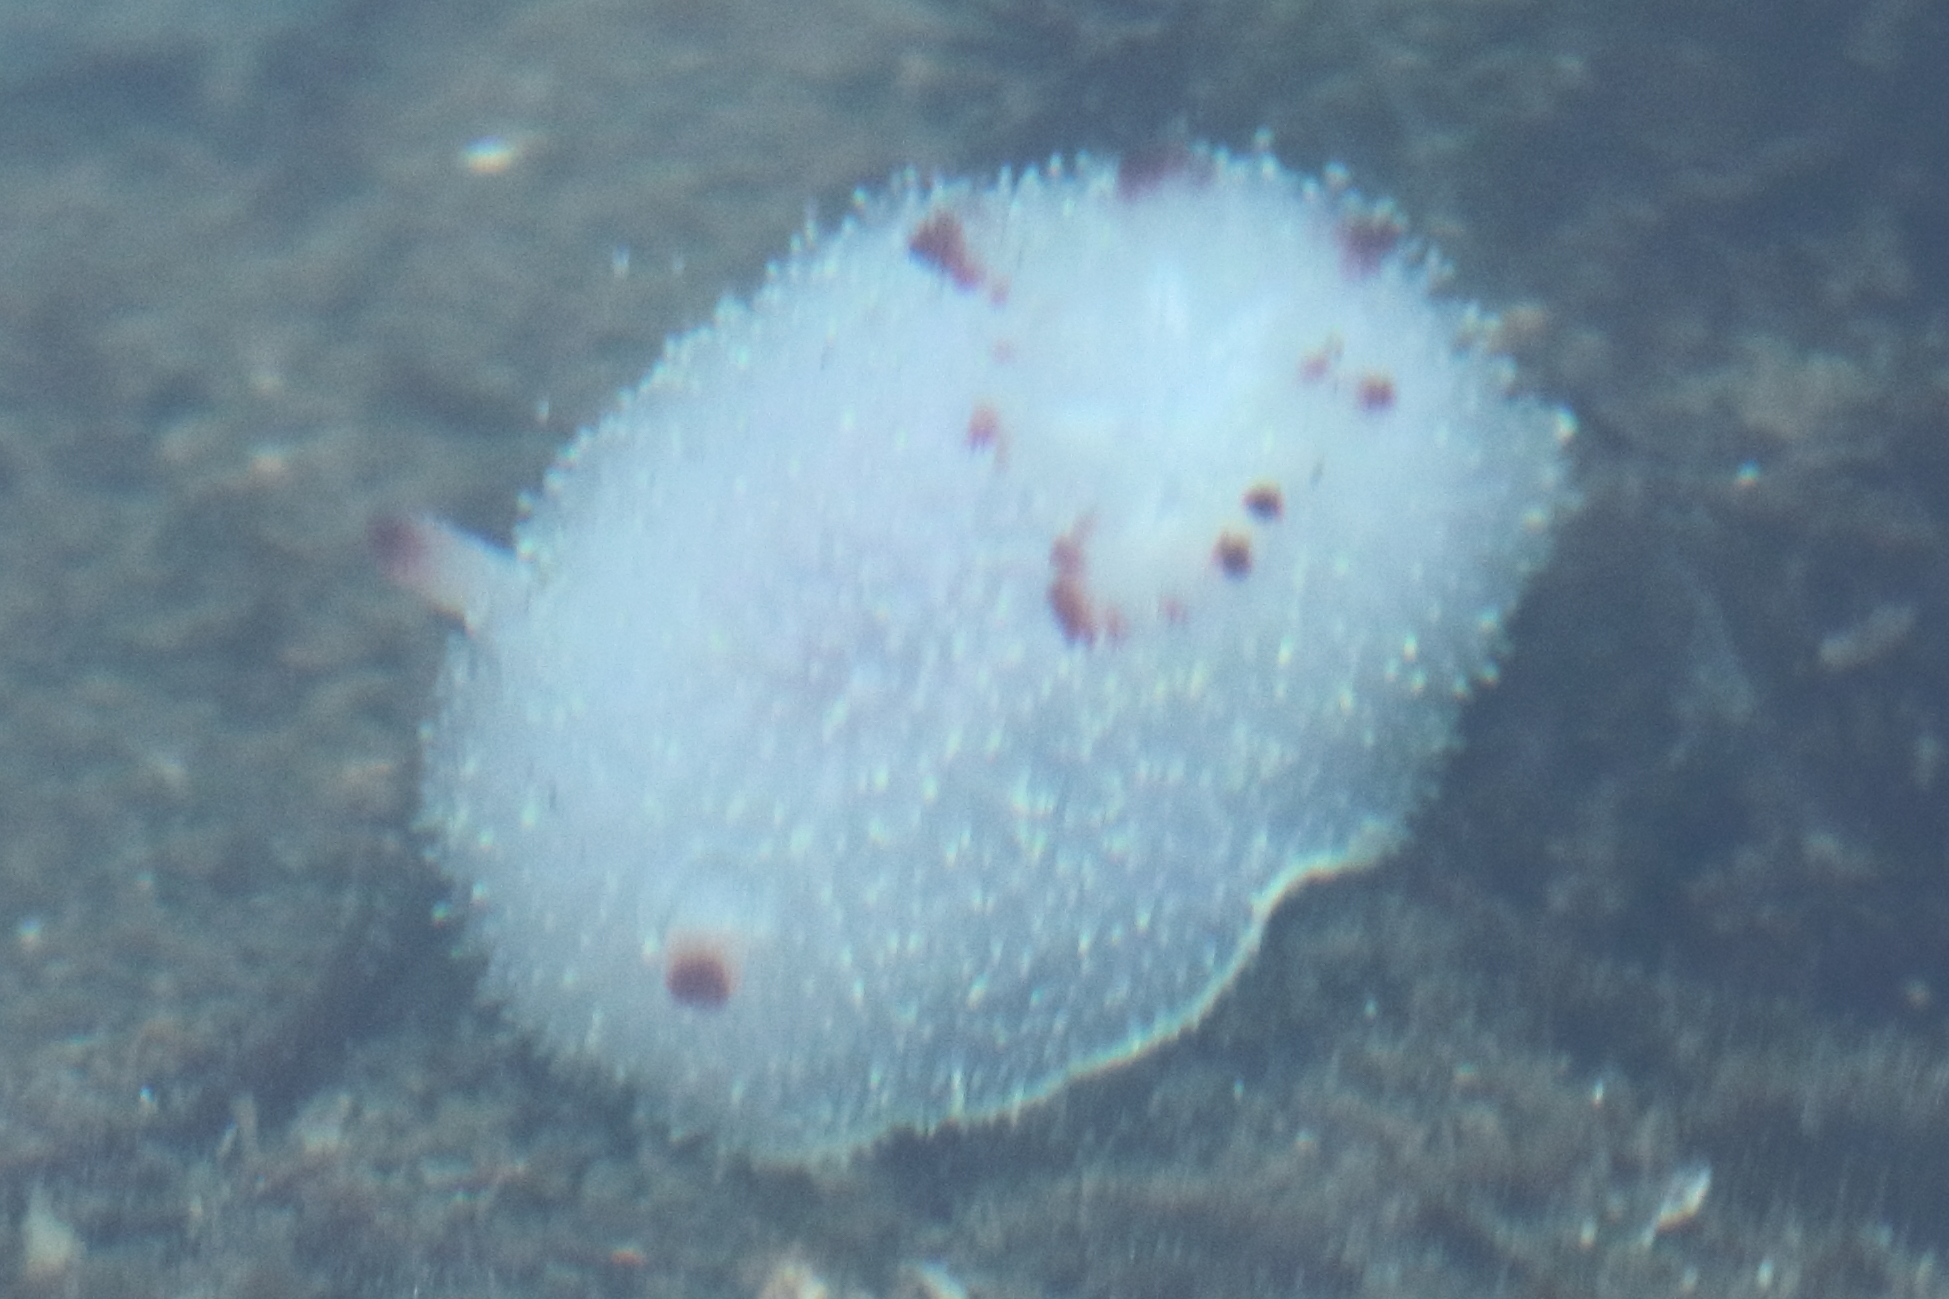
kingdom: Animalia
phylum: Mollusca
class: Gastropoda
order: Nudibranchia
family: Onchidorididae
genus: Acanthodoris
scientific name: Acanthodoris nanaimoensis
